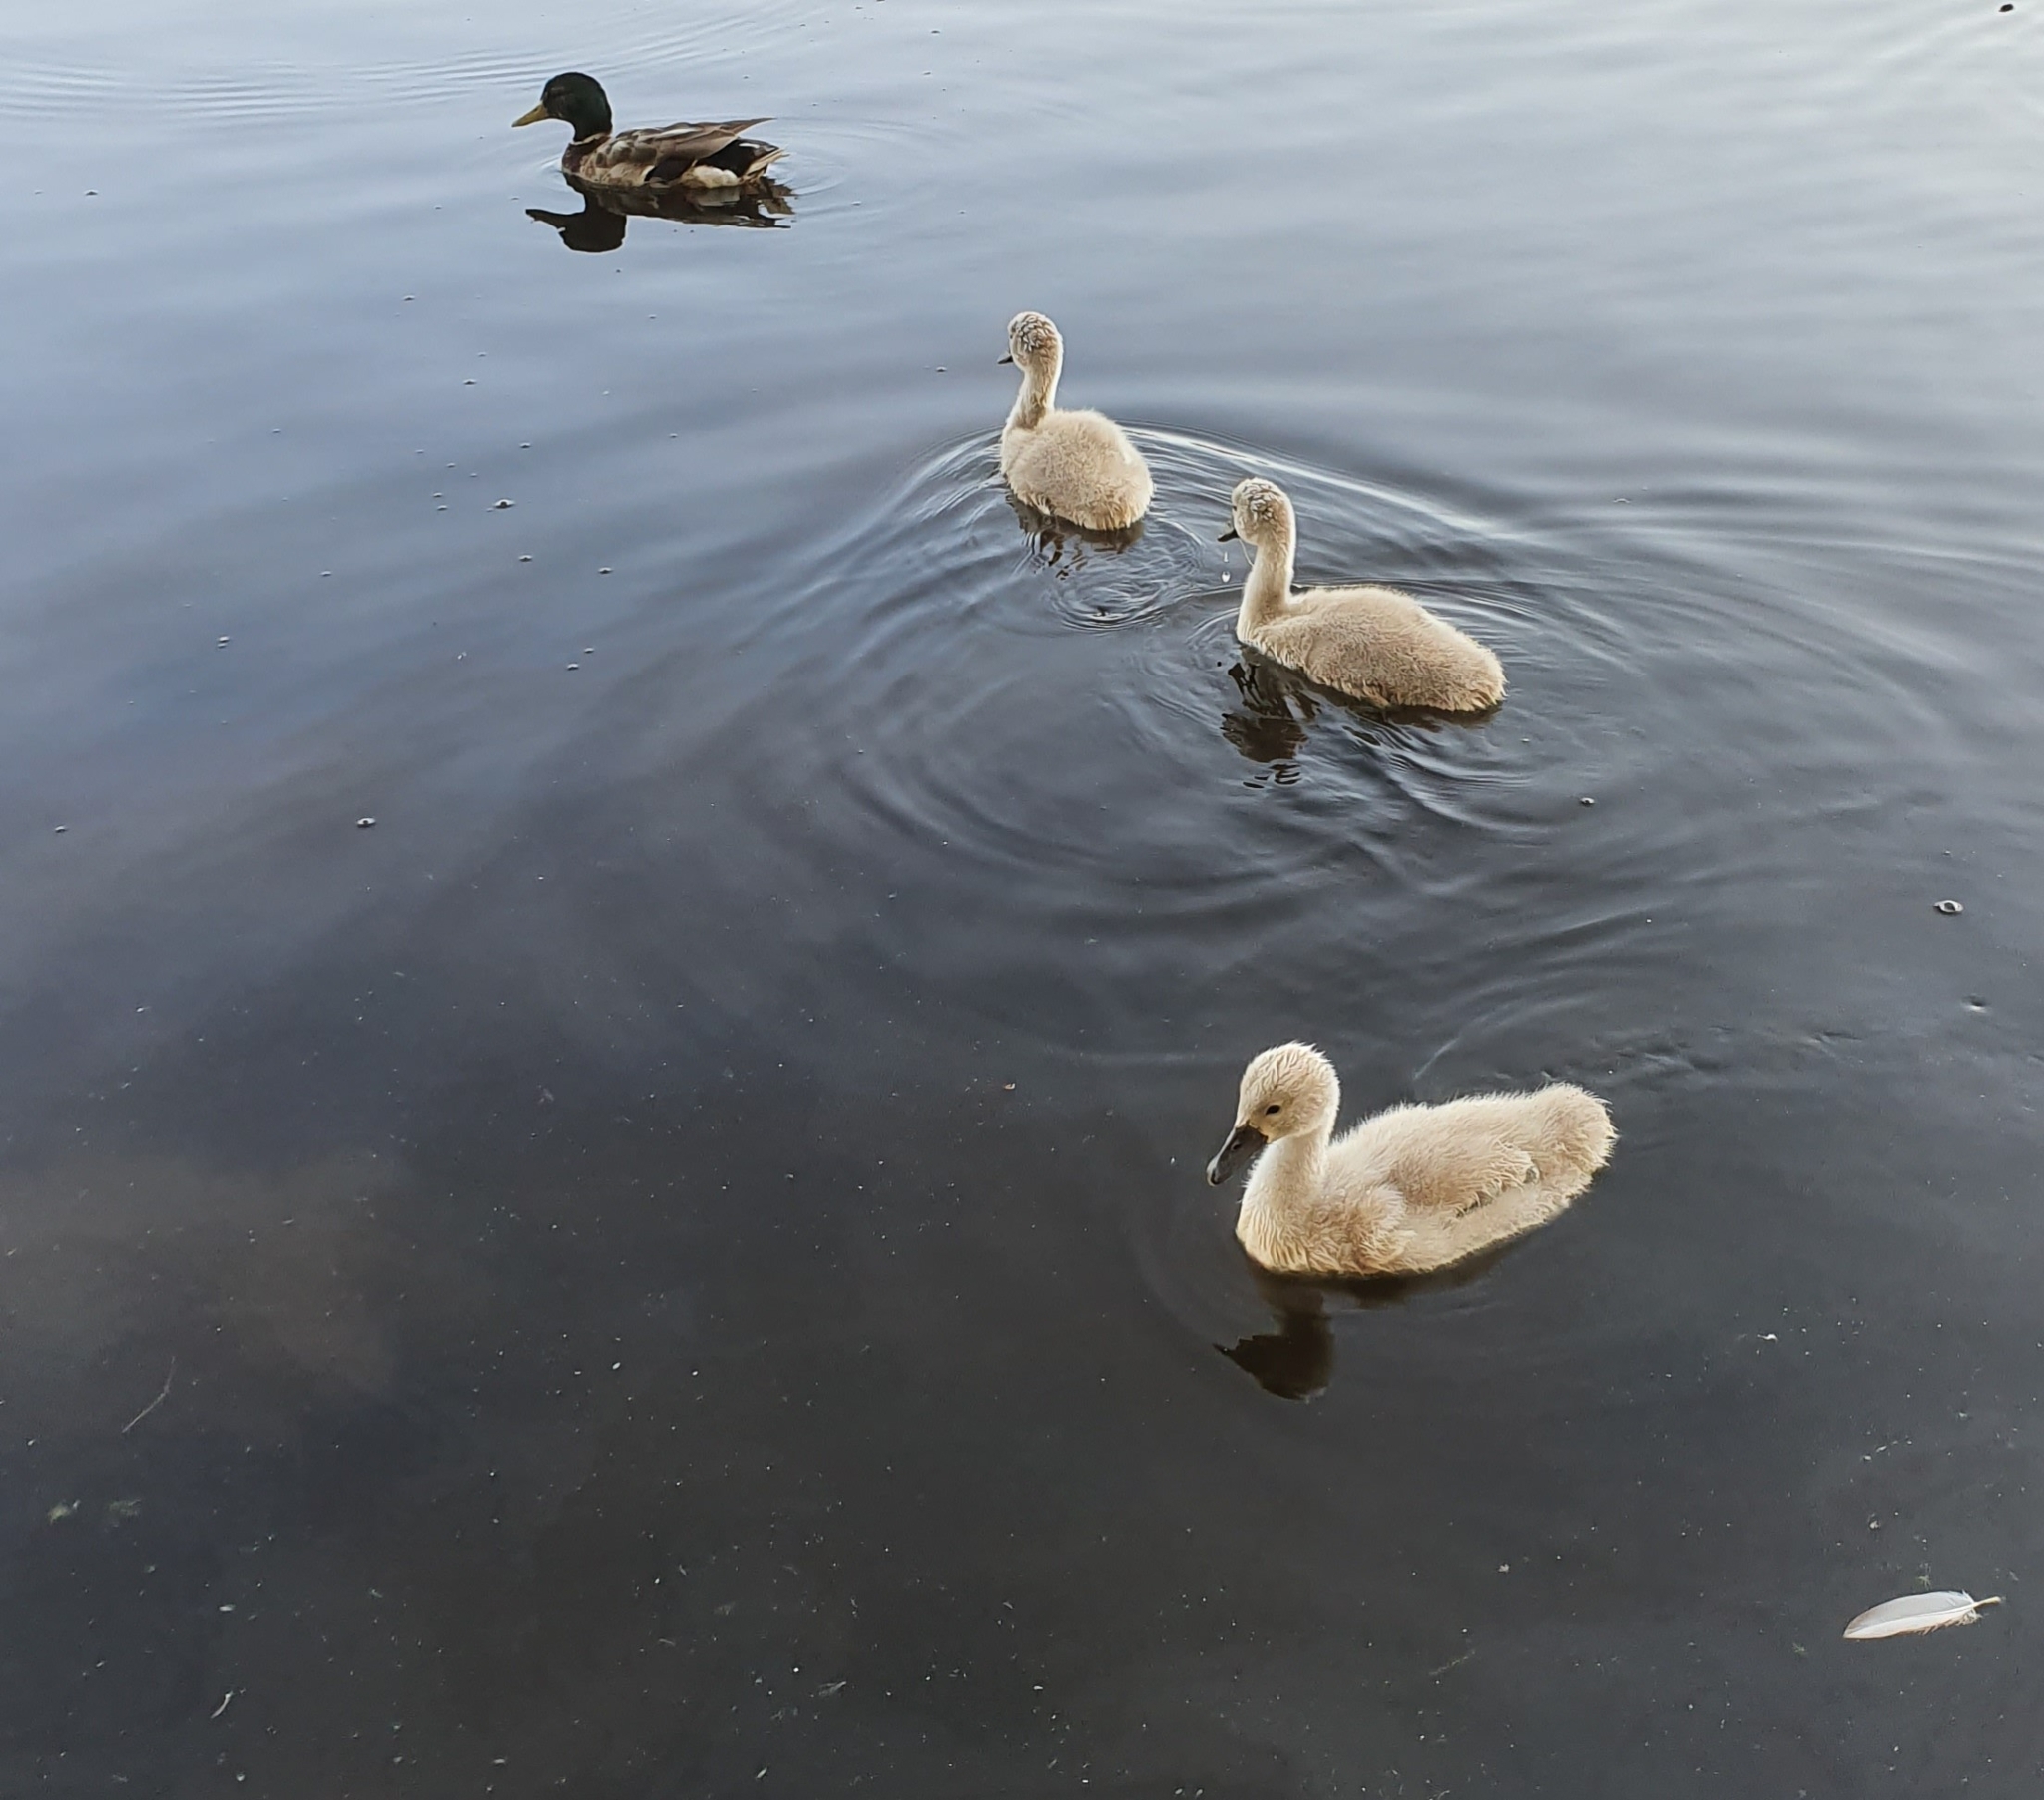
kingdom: Animalia
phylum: Chordata
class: Aves
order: Anseriformes
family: Anatidae
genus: Cygnus
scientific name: Cygnus olor
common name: Mute swan
